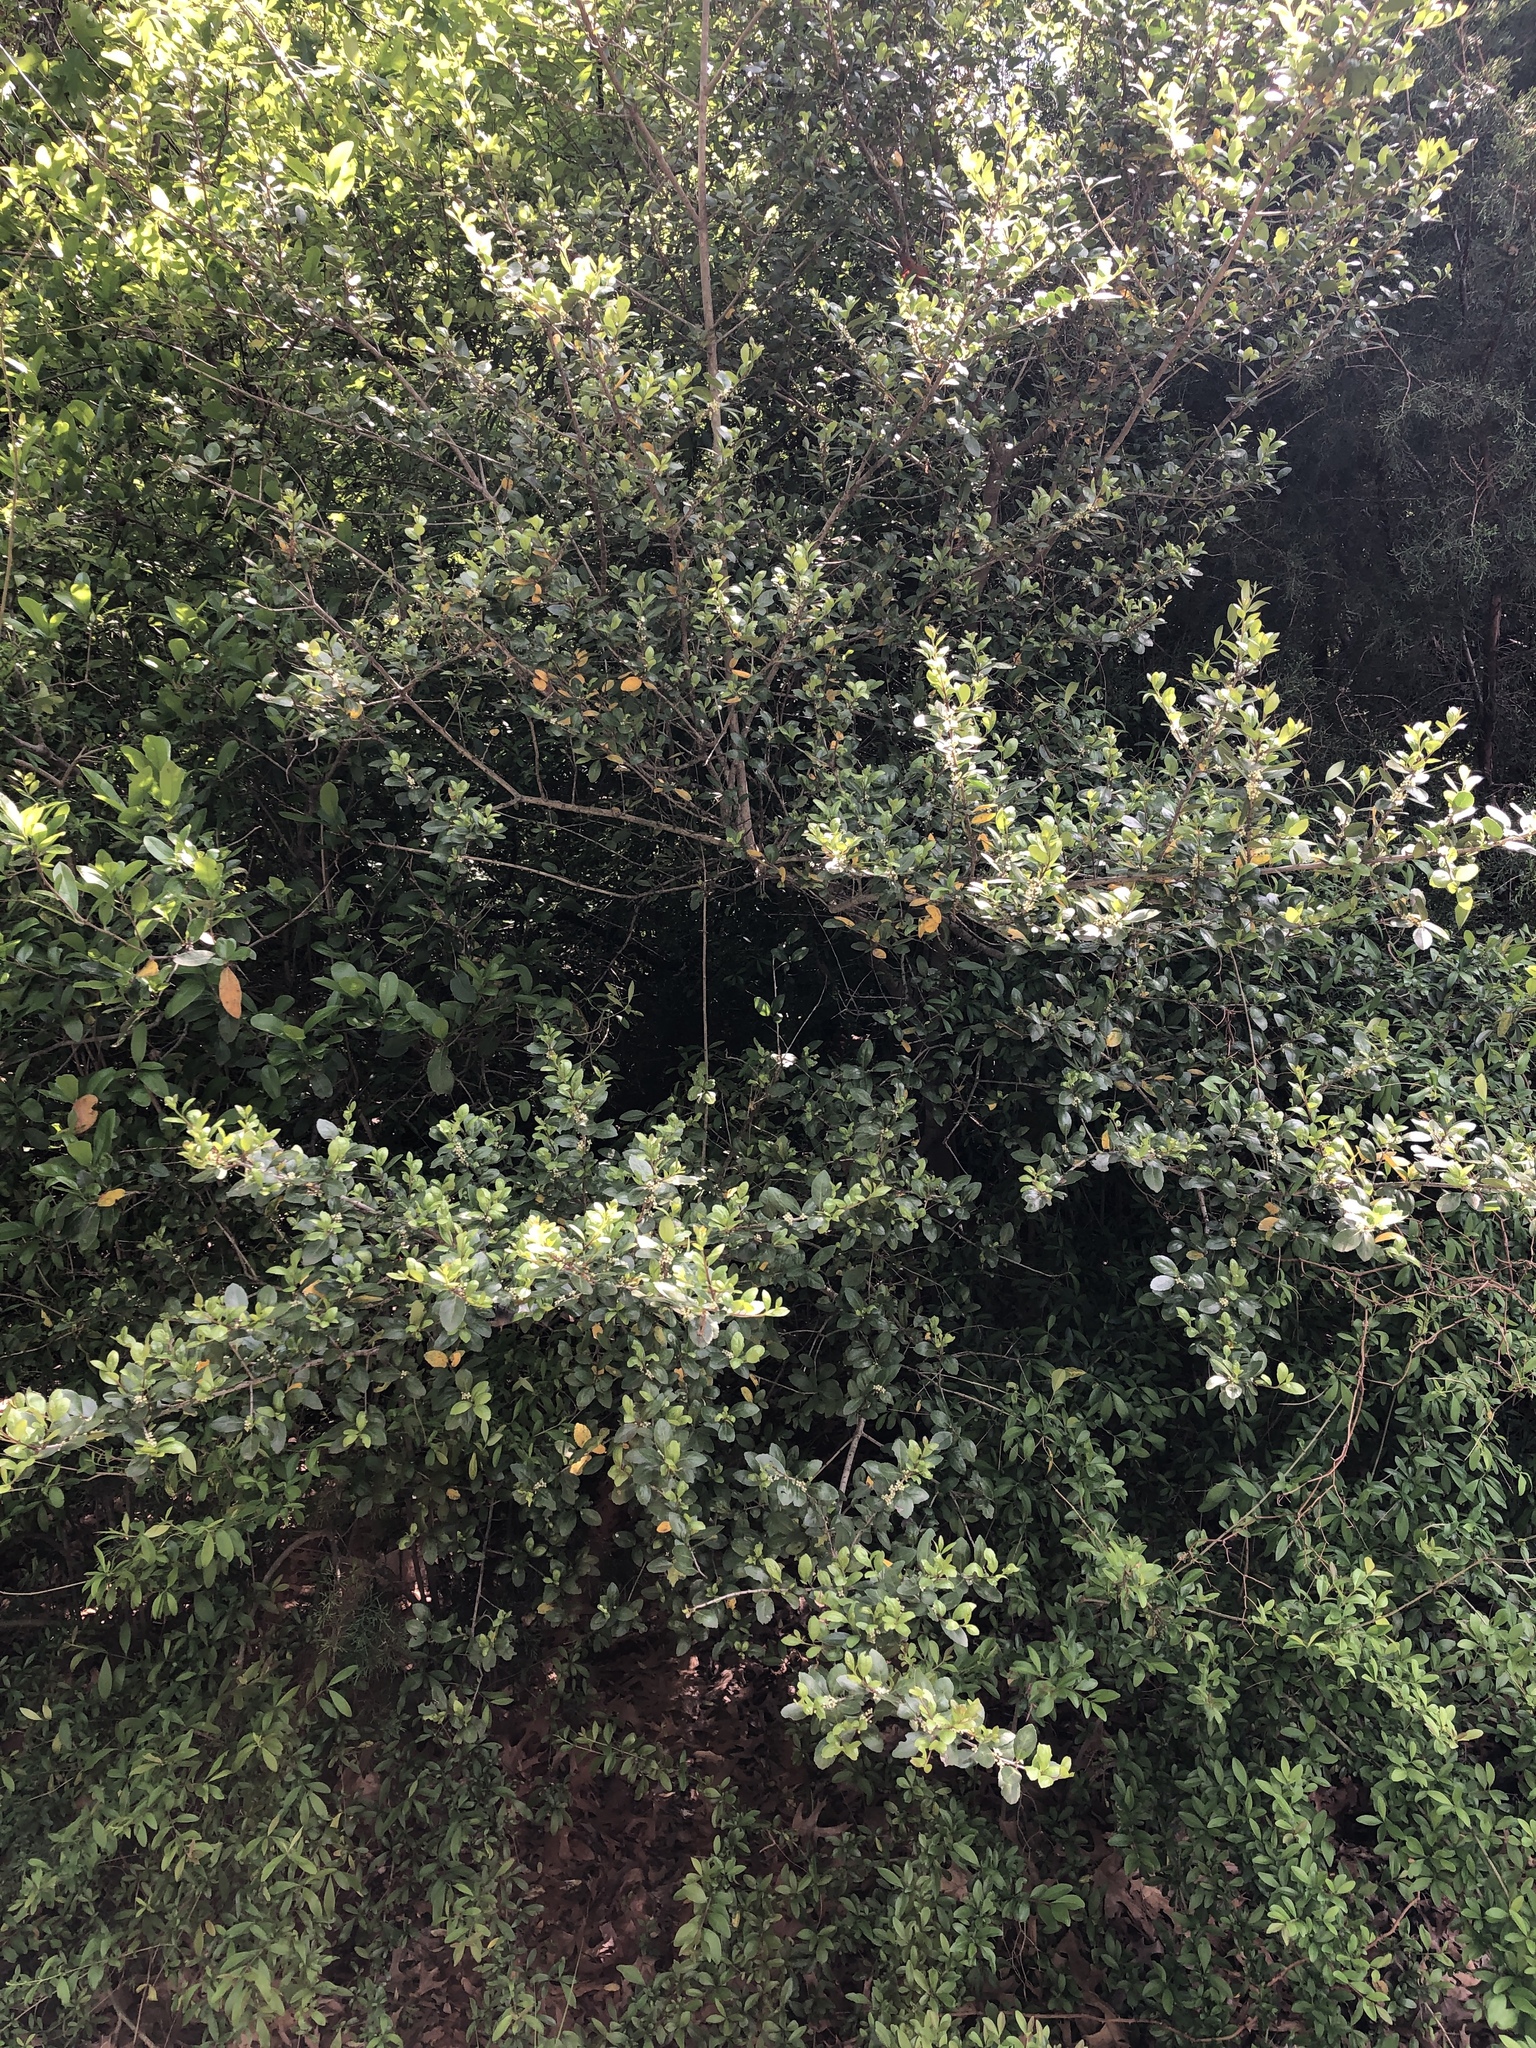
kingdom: Plantae
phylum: Tracheophyta
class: Magnoliopsida
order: Aquifoliales
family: Aquifoliaceae
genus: Ilex
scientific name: Ilex vomitoria
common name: Yaupon holly
